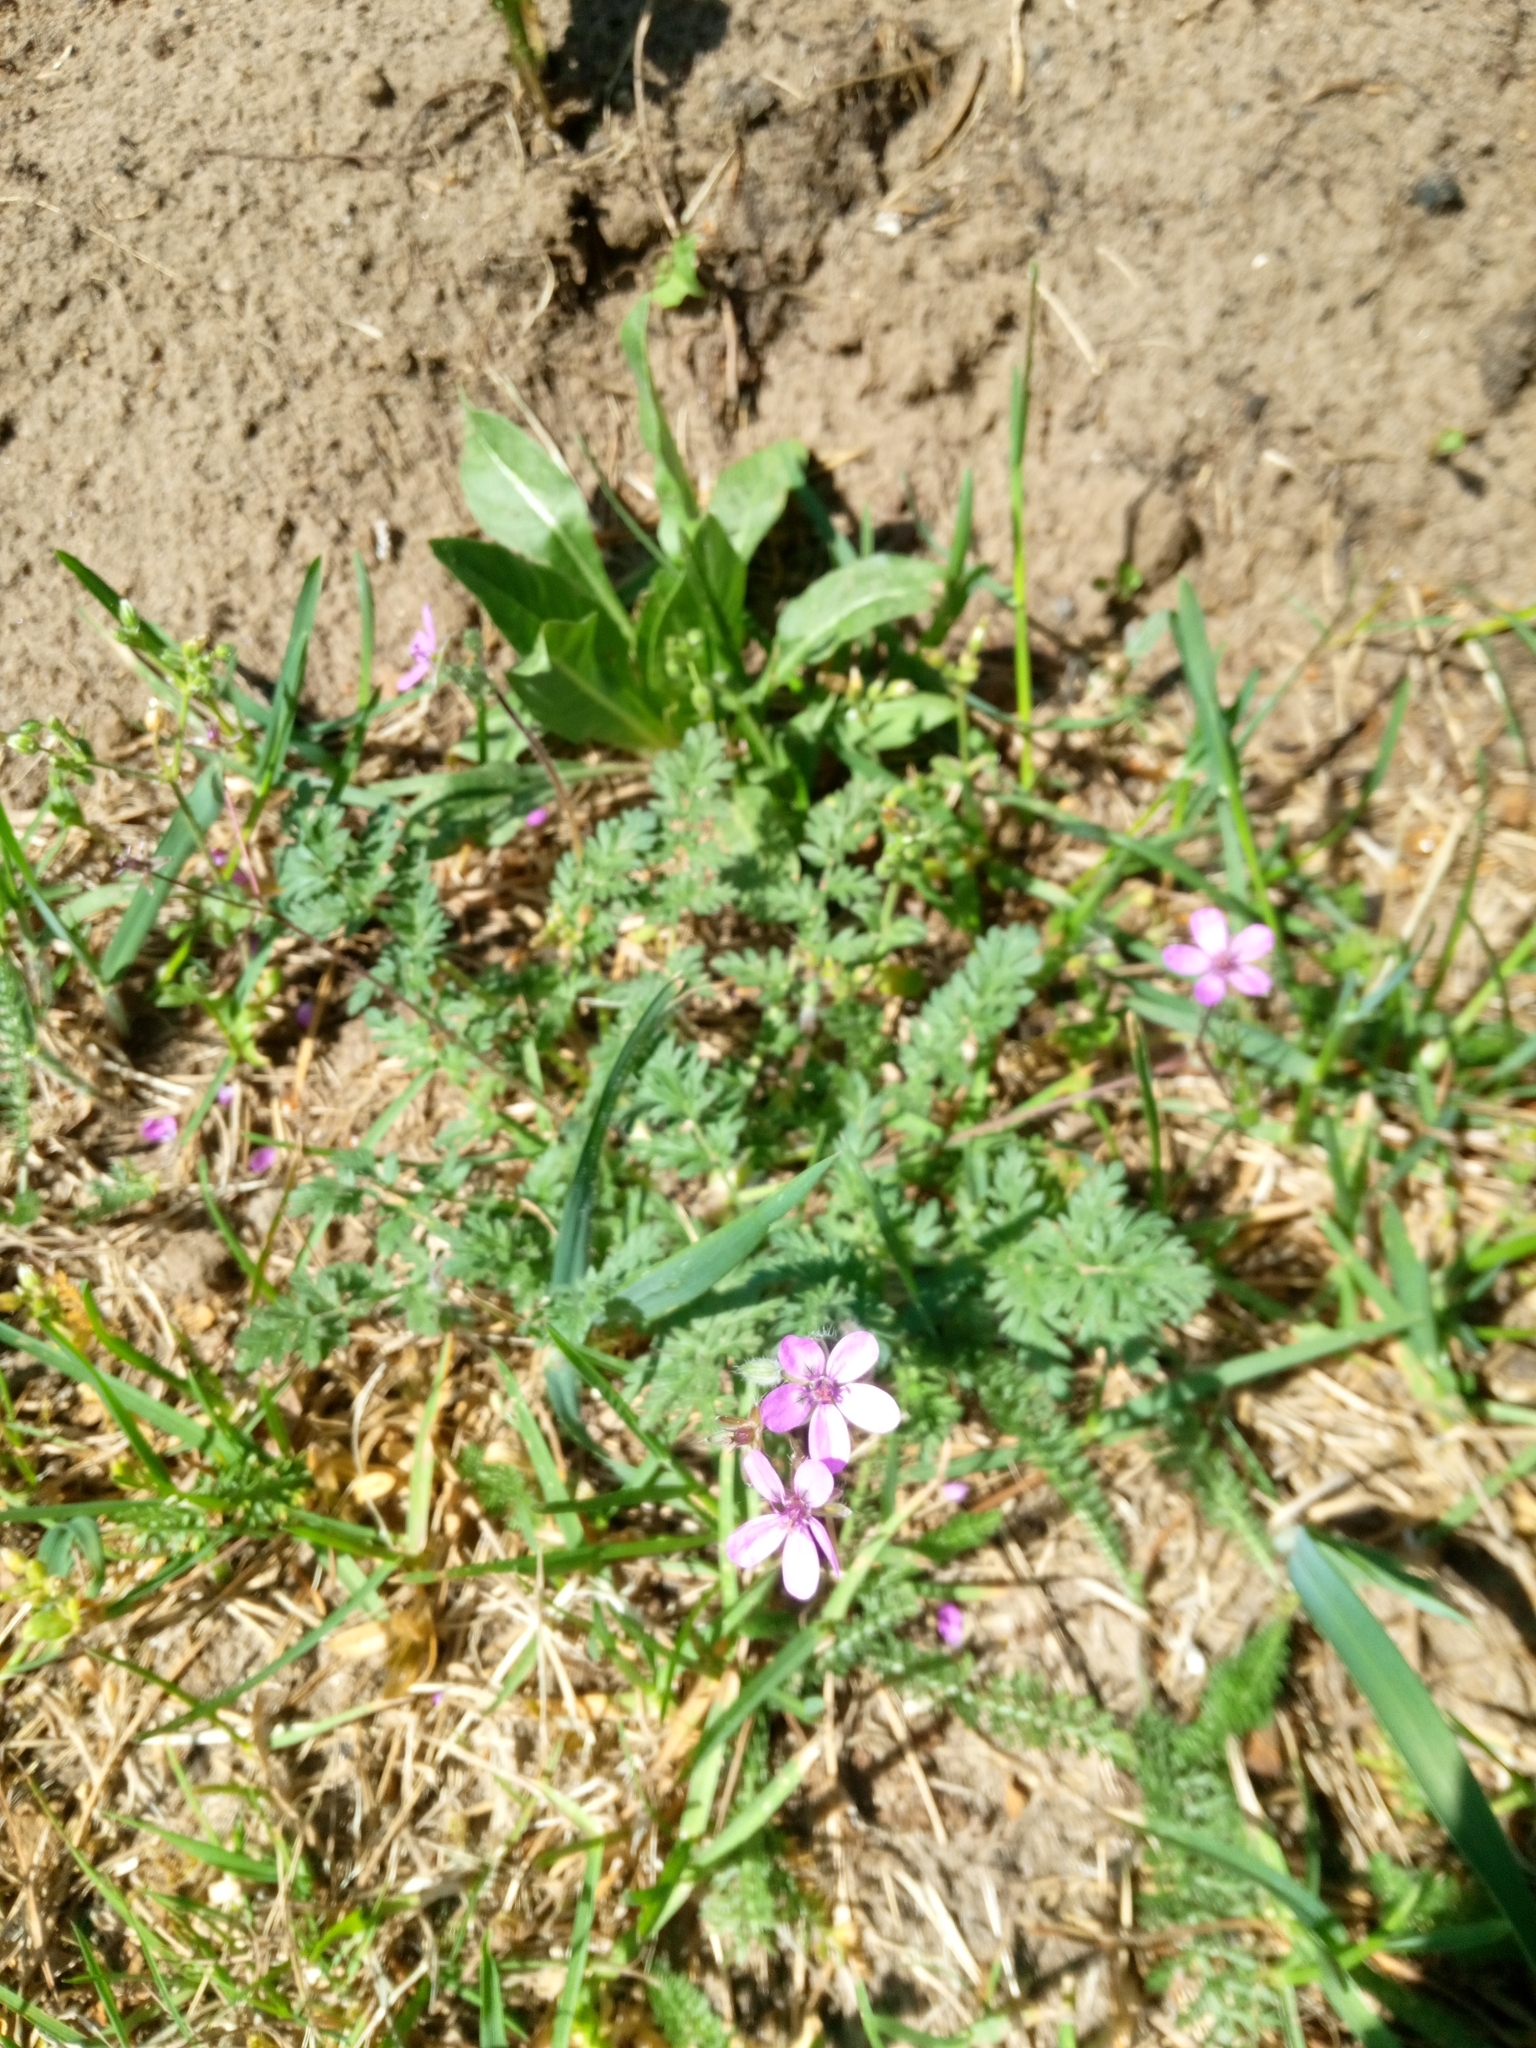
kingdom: Plantae
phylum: Tracheophyta
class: Magnoliopsida
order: Geraniales
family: Geraniaceae
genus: Erodium
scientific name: Erodium cicutarium
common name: Common stork's-bill
